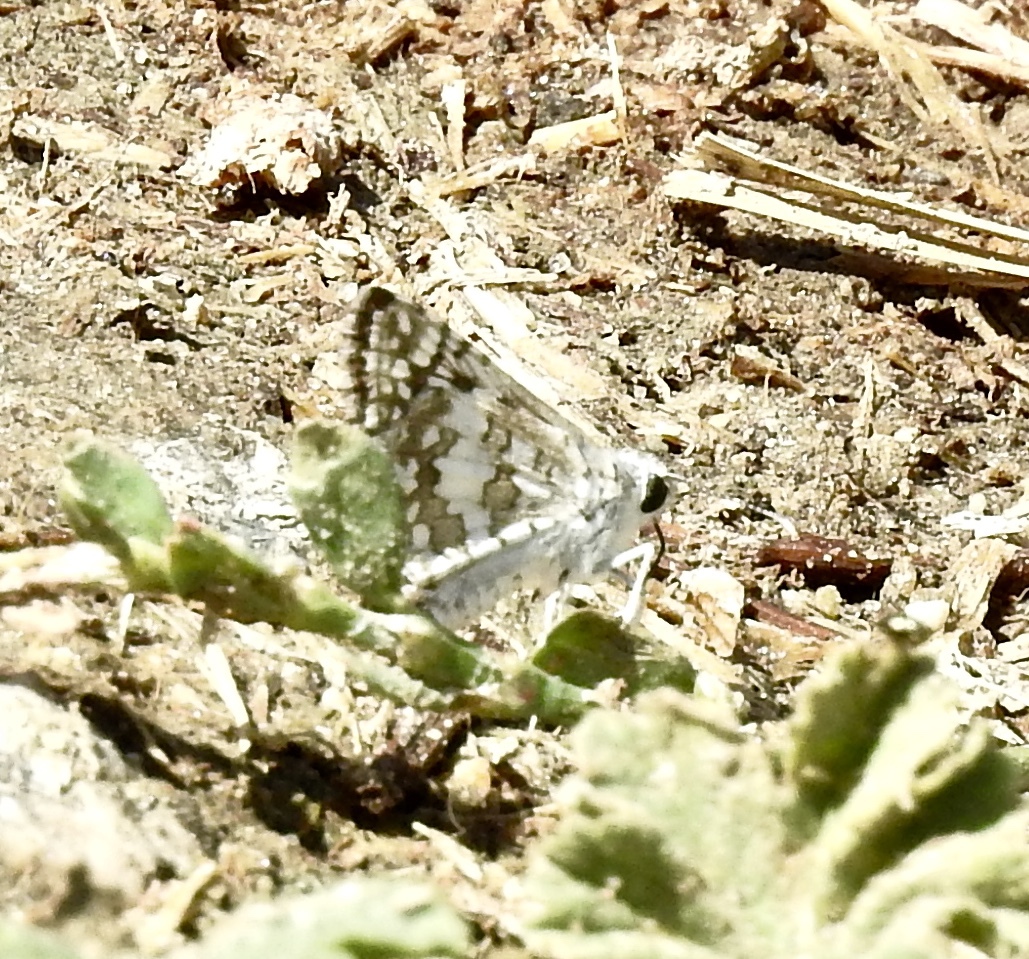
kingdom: Animalia
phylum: Arthropoda
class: Insecta
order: Lepidoptera
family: Hesperiidae
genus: Burnsius
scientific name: Burnsius albezens
